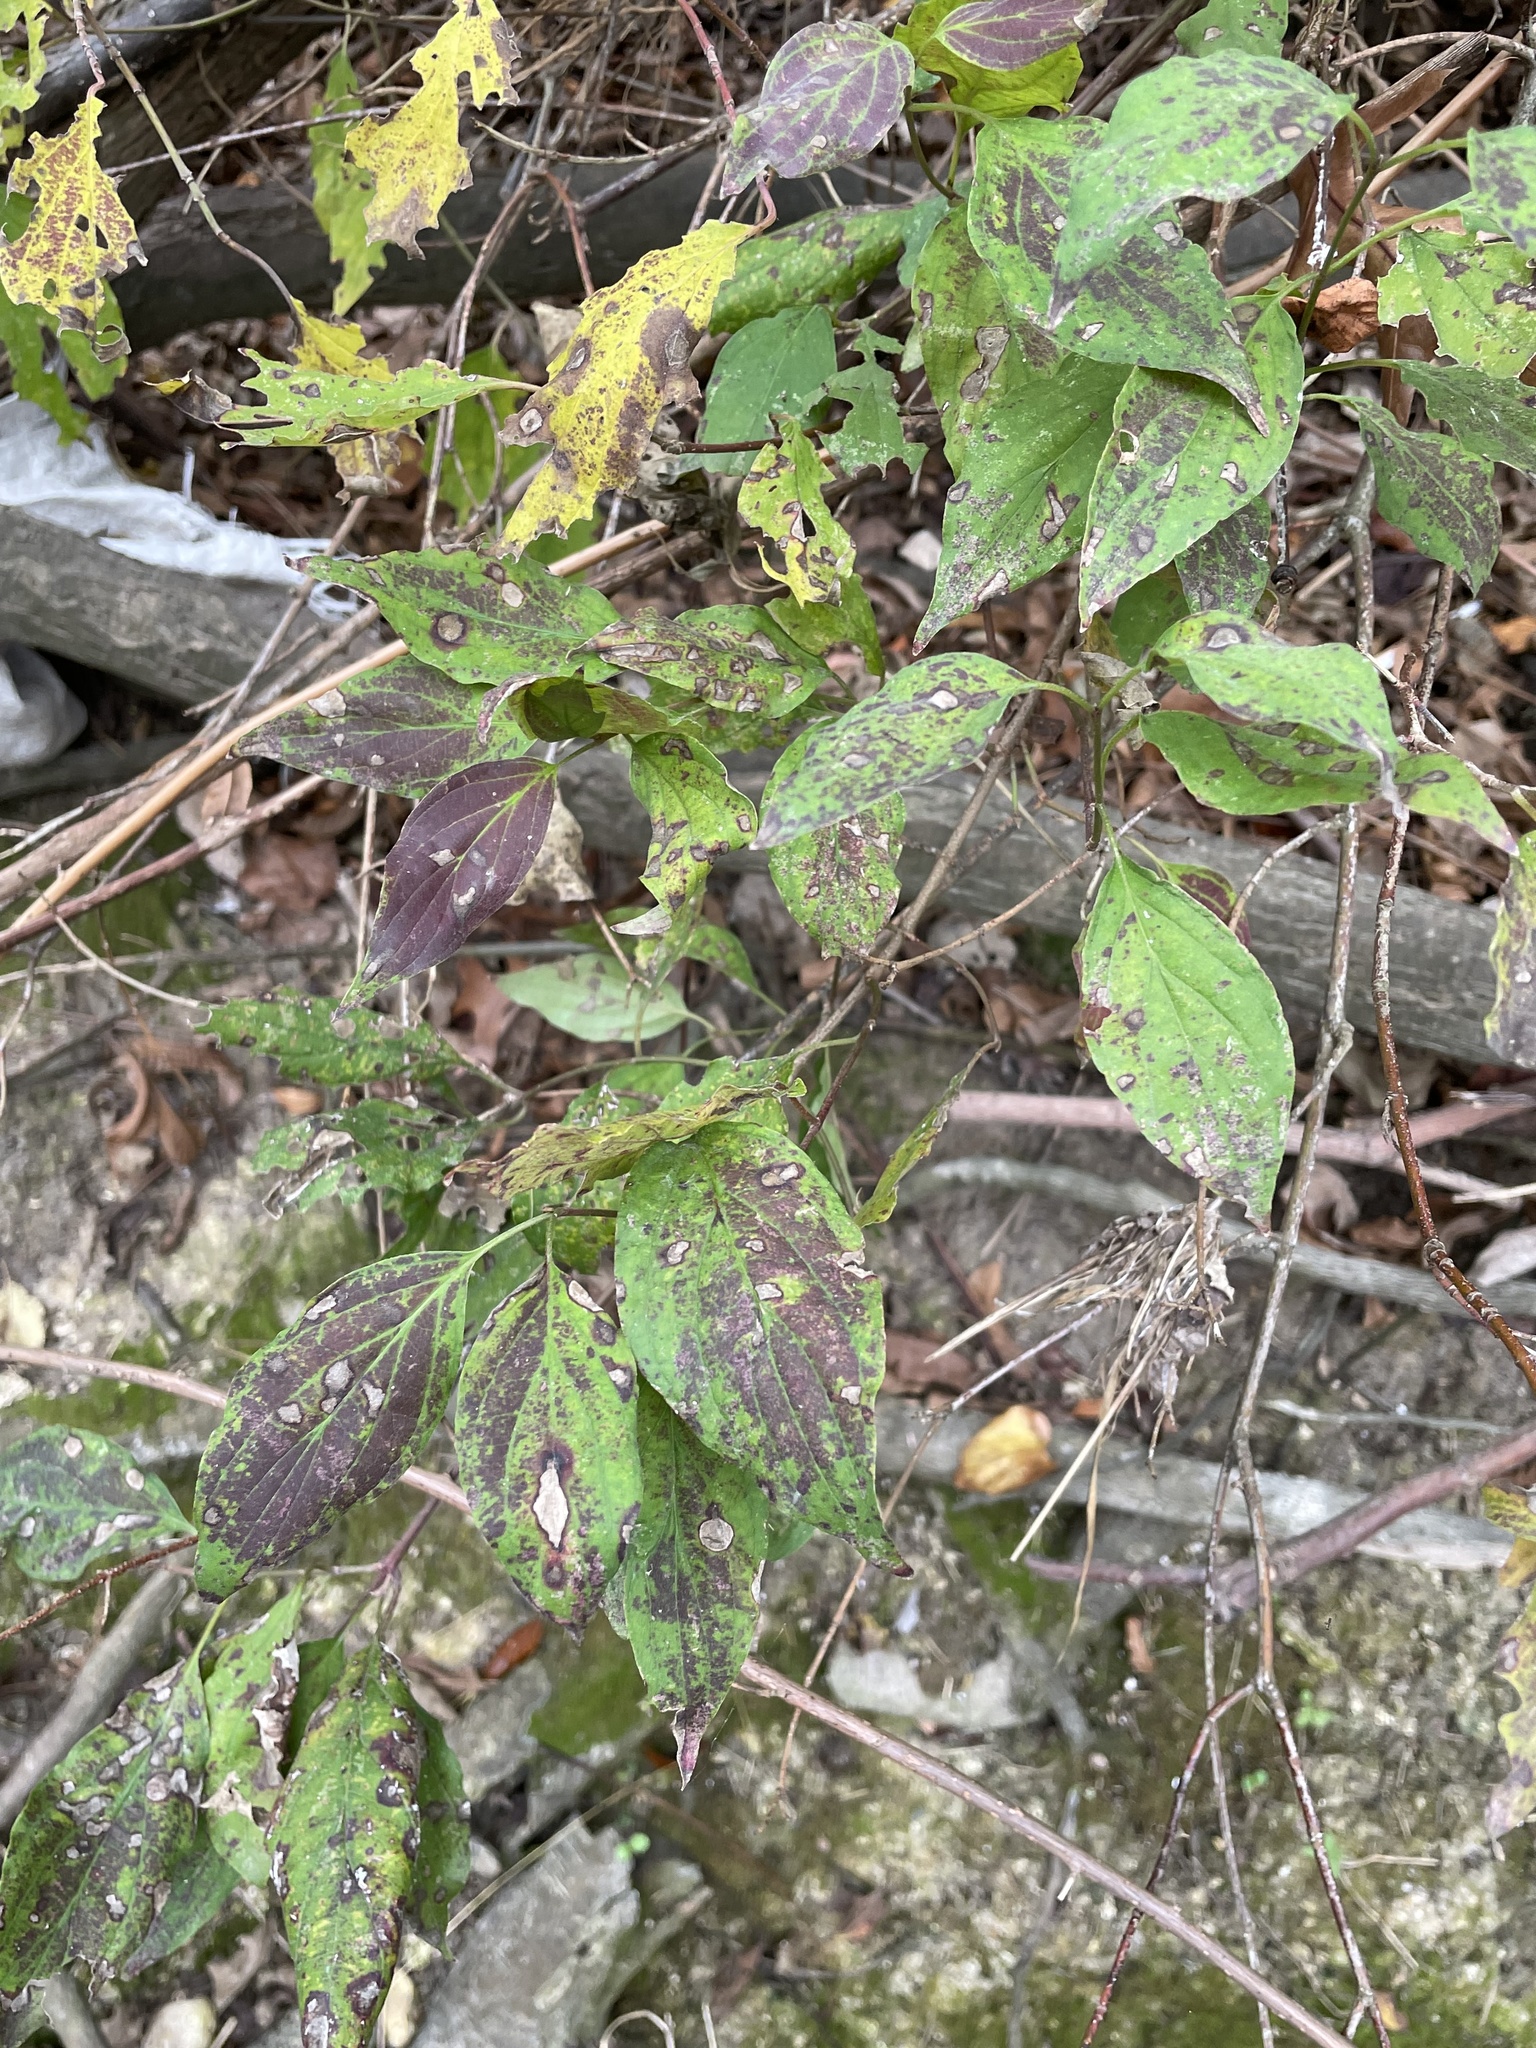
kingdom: Plantae
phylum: Tracheophyta
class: Magnoliopsida
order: Cornales
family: Cornaceae
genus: Cornus
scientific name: Cornus drummondii
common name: Rough-leaf dogwood
